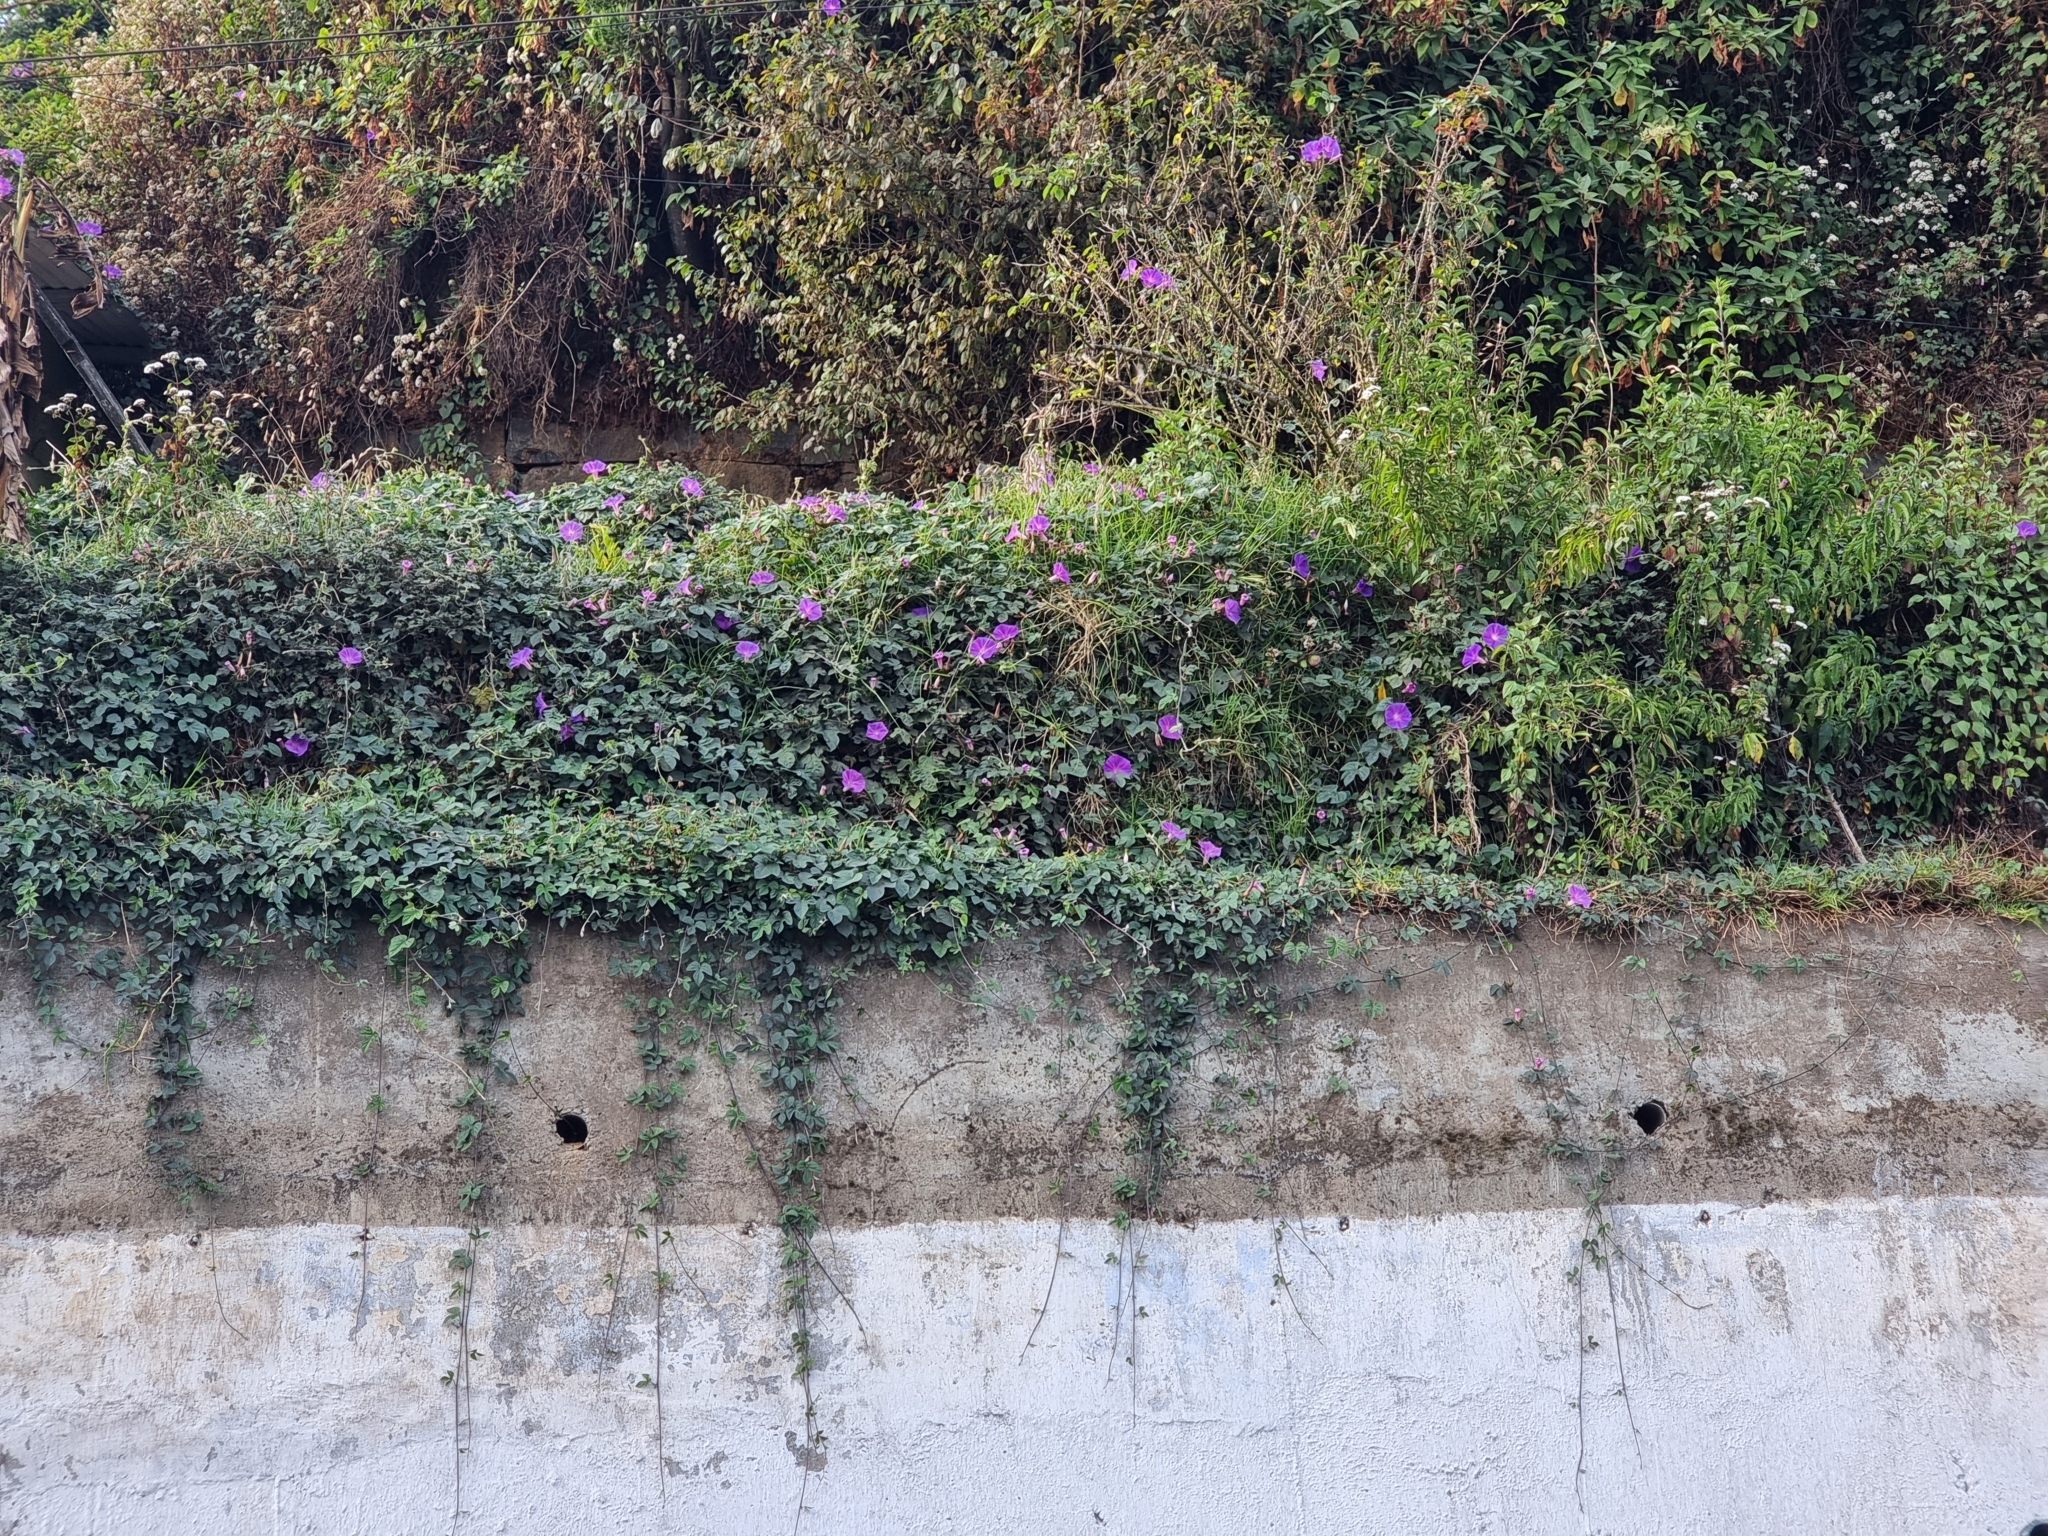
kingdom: Plantae
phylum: Tracheophyta
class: Magnoliopsida
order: Solanales
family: Convolvulaceae
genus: Ipomoea
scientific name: Ipomoea indica
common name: Blue dawnflower
